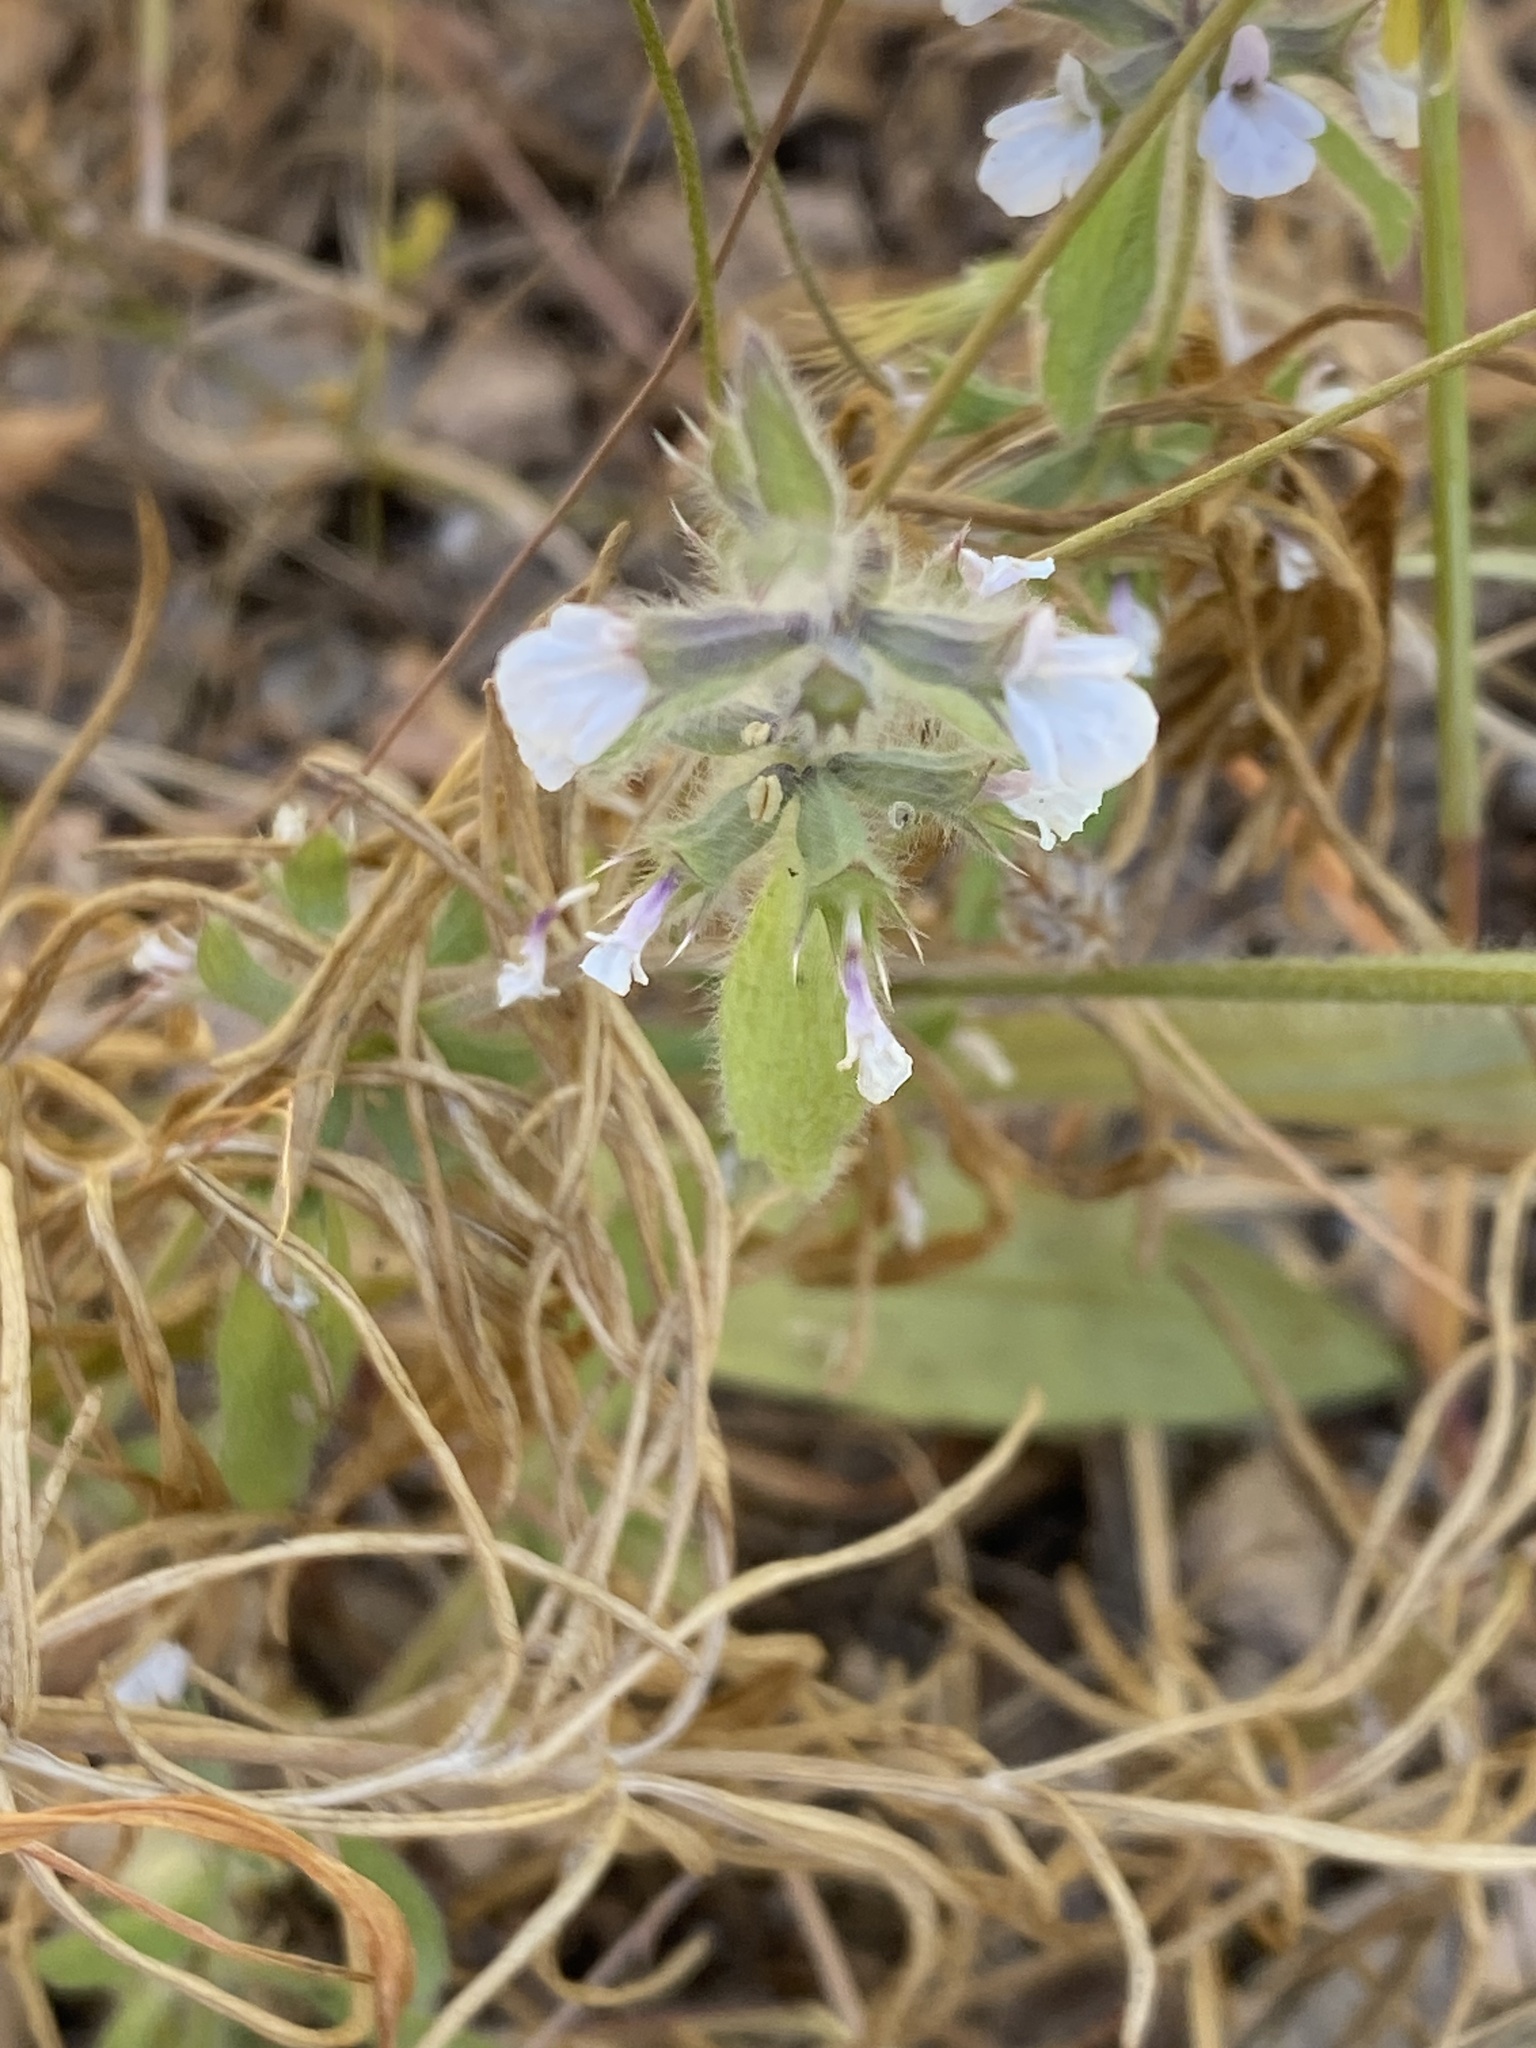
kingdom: Plantae
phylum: Tracheophyta
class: Magnoliopsida
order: Lamiales
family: Lamiaceae
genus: Sideritis
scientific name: Sideritis romana
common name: Simplebeak ironwort
